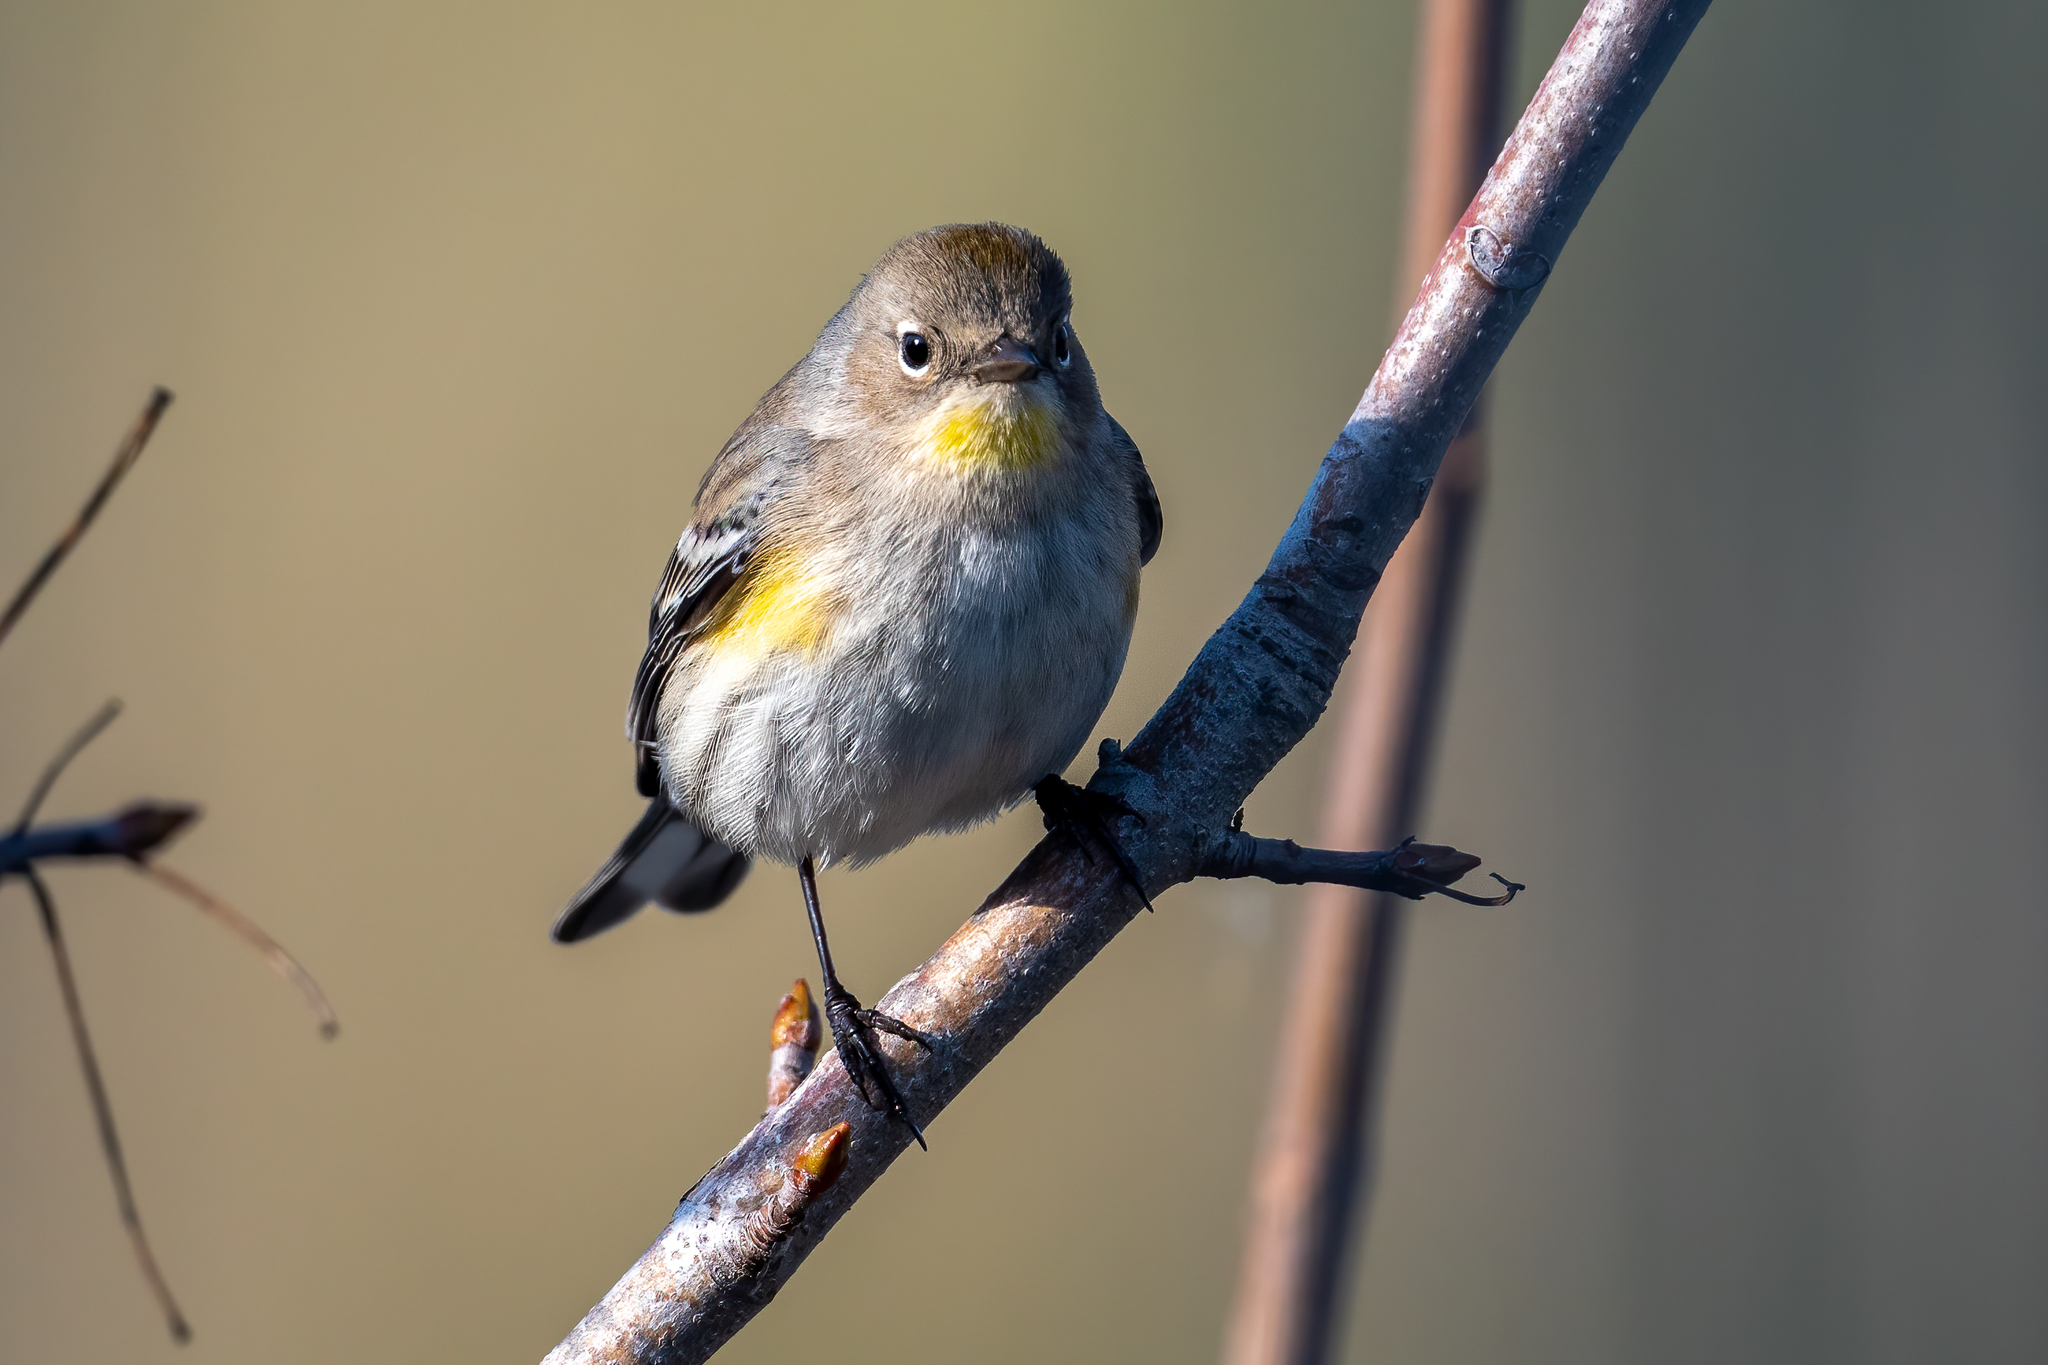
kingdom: Animalia
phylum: Chordata
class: Aves
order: Passeriformes
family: Parulidae
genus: Setophaga
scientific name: Setophaga coronata
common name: Myrtle warbler
